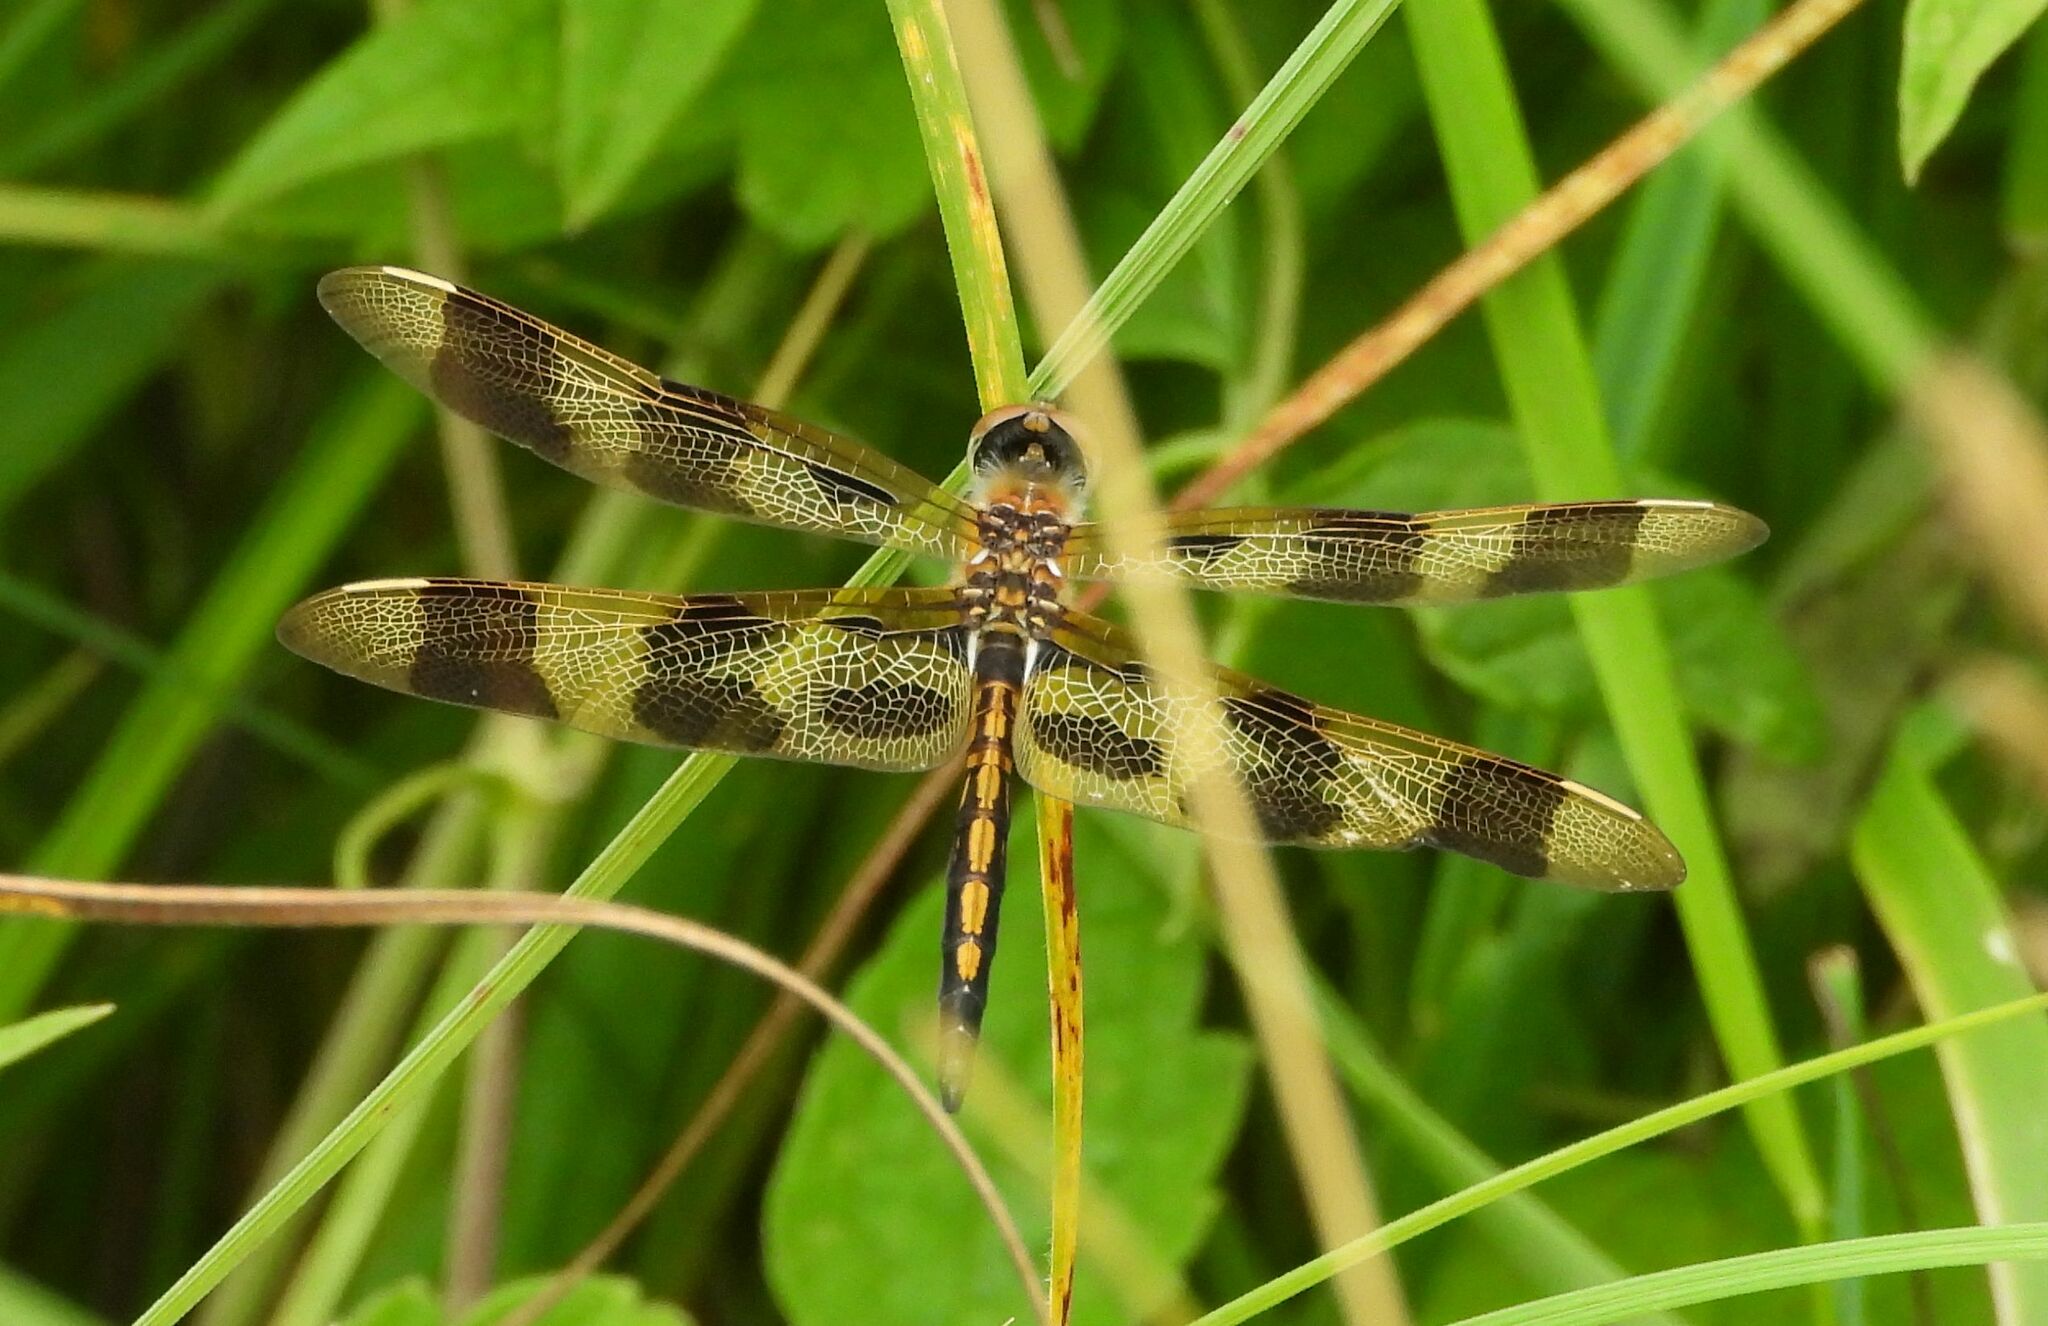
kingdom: Animalia
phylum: Arthropoda
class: Insecta
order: Odonata
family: Libellulidae
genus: Celithemis
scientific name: Celithemis eponina
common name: Halloween pennant
